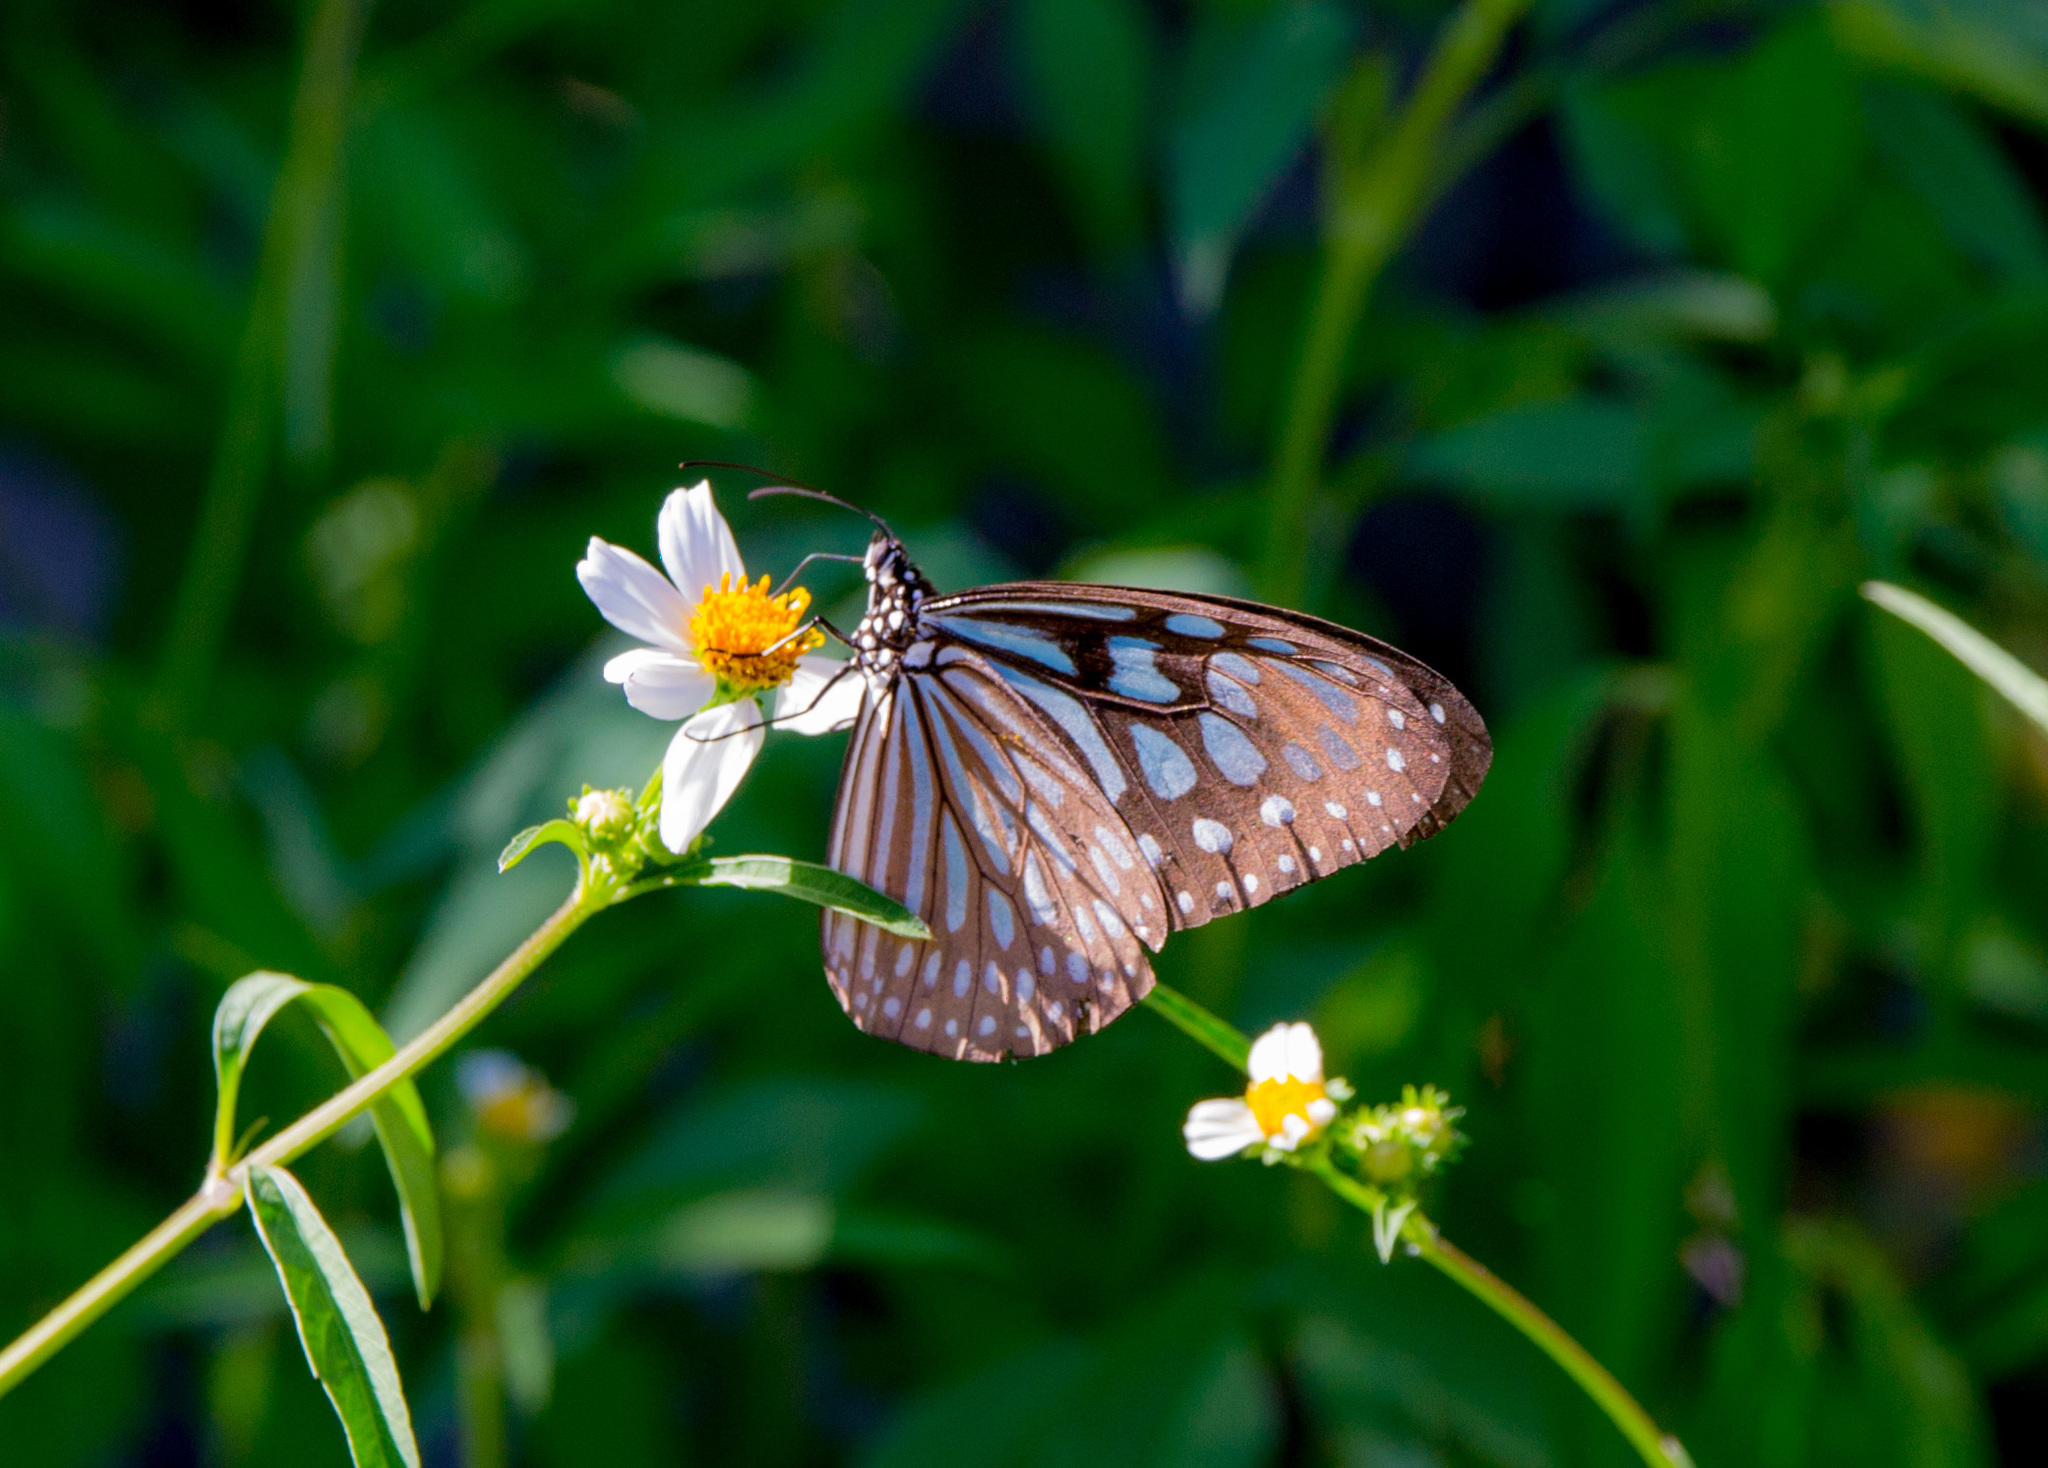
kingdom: Animalia
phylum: Arthropoda
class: Insecta
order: Lepidoptera
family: Nymphalidae
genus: Ideopsis
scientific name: Ideopsis similis
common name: Ceylon blue glassy tiger
